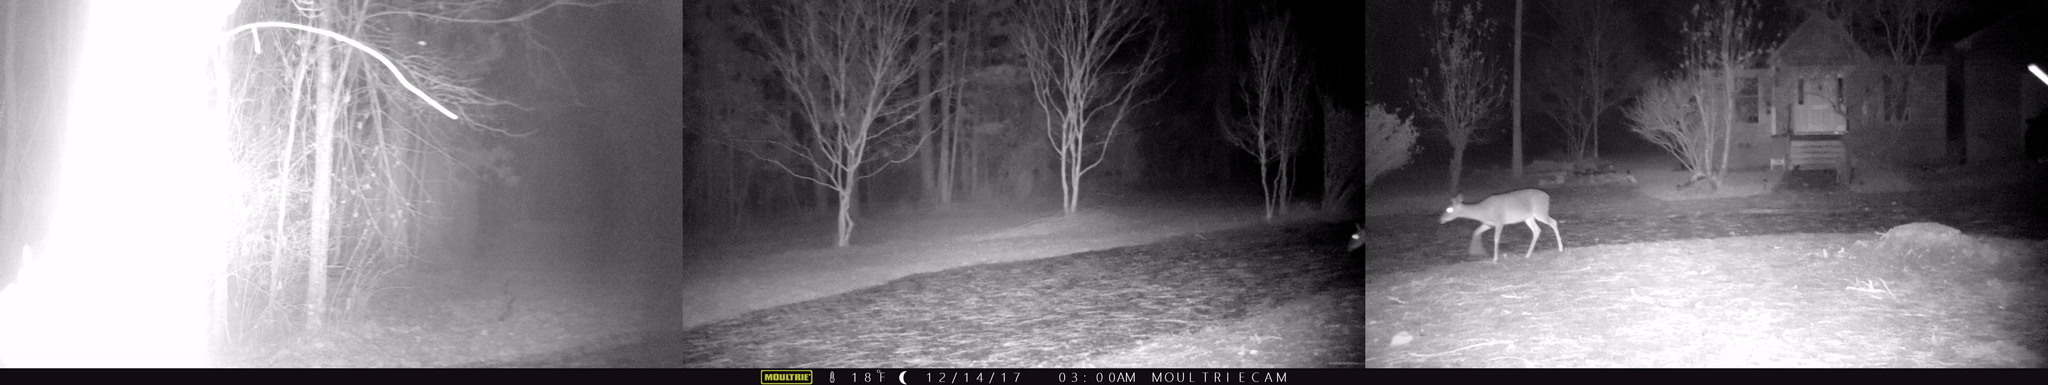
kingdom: Animalia
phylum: Chordata
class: Mammalia
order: Artiodactyla
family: Cervidae
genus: Odocoileus
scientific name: Odocoileus virginianus
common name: White-tailed deer
